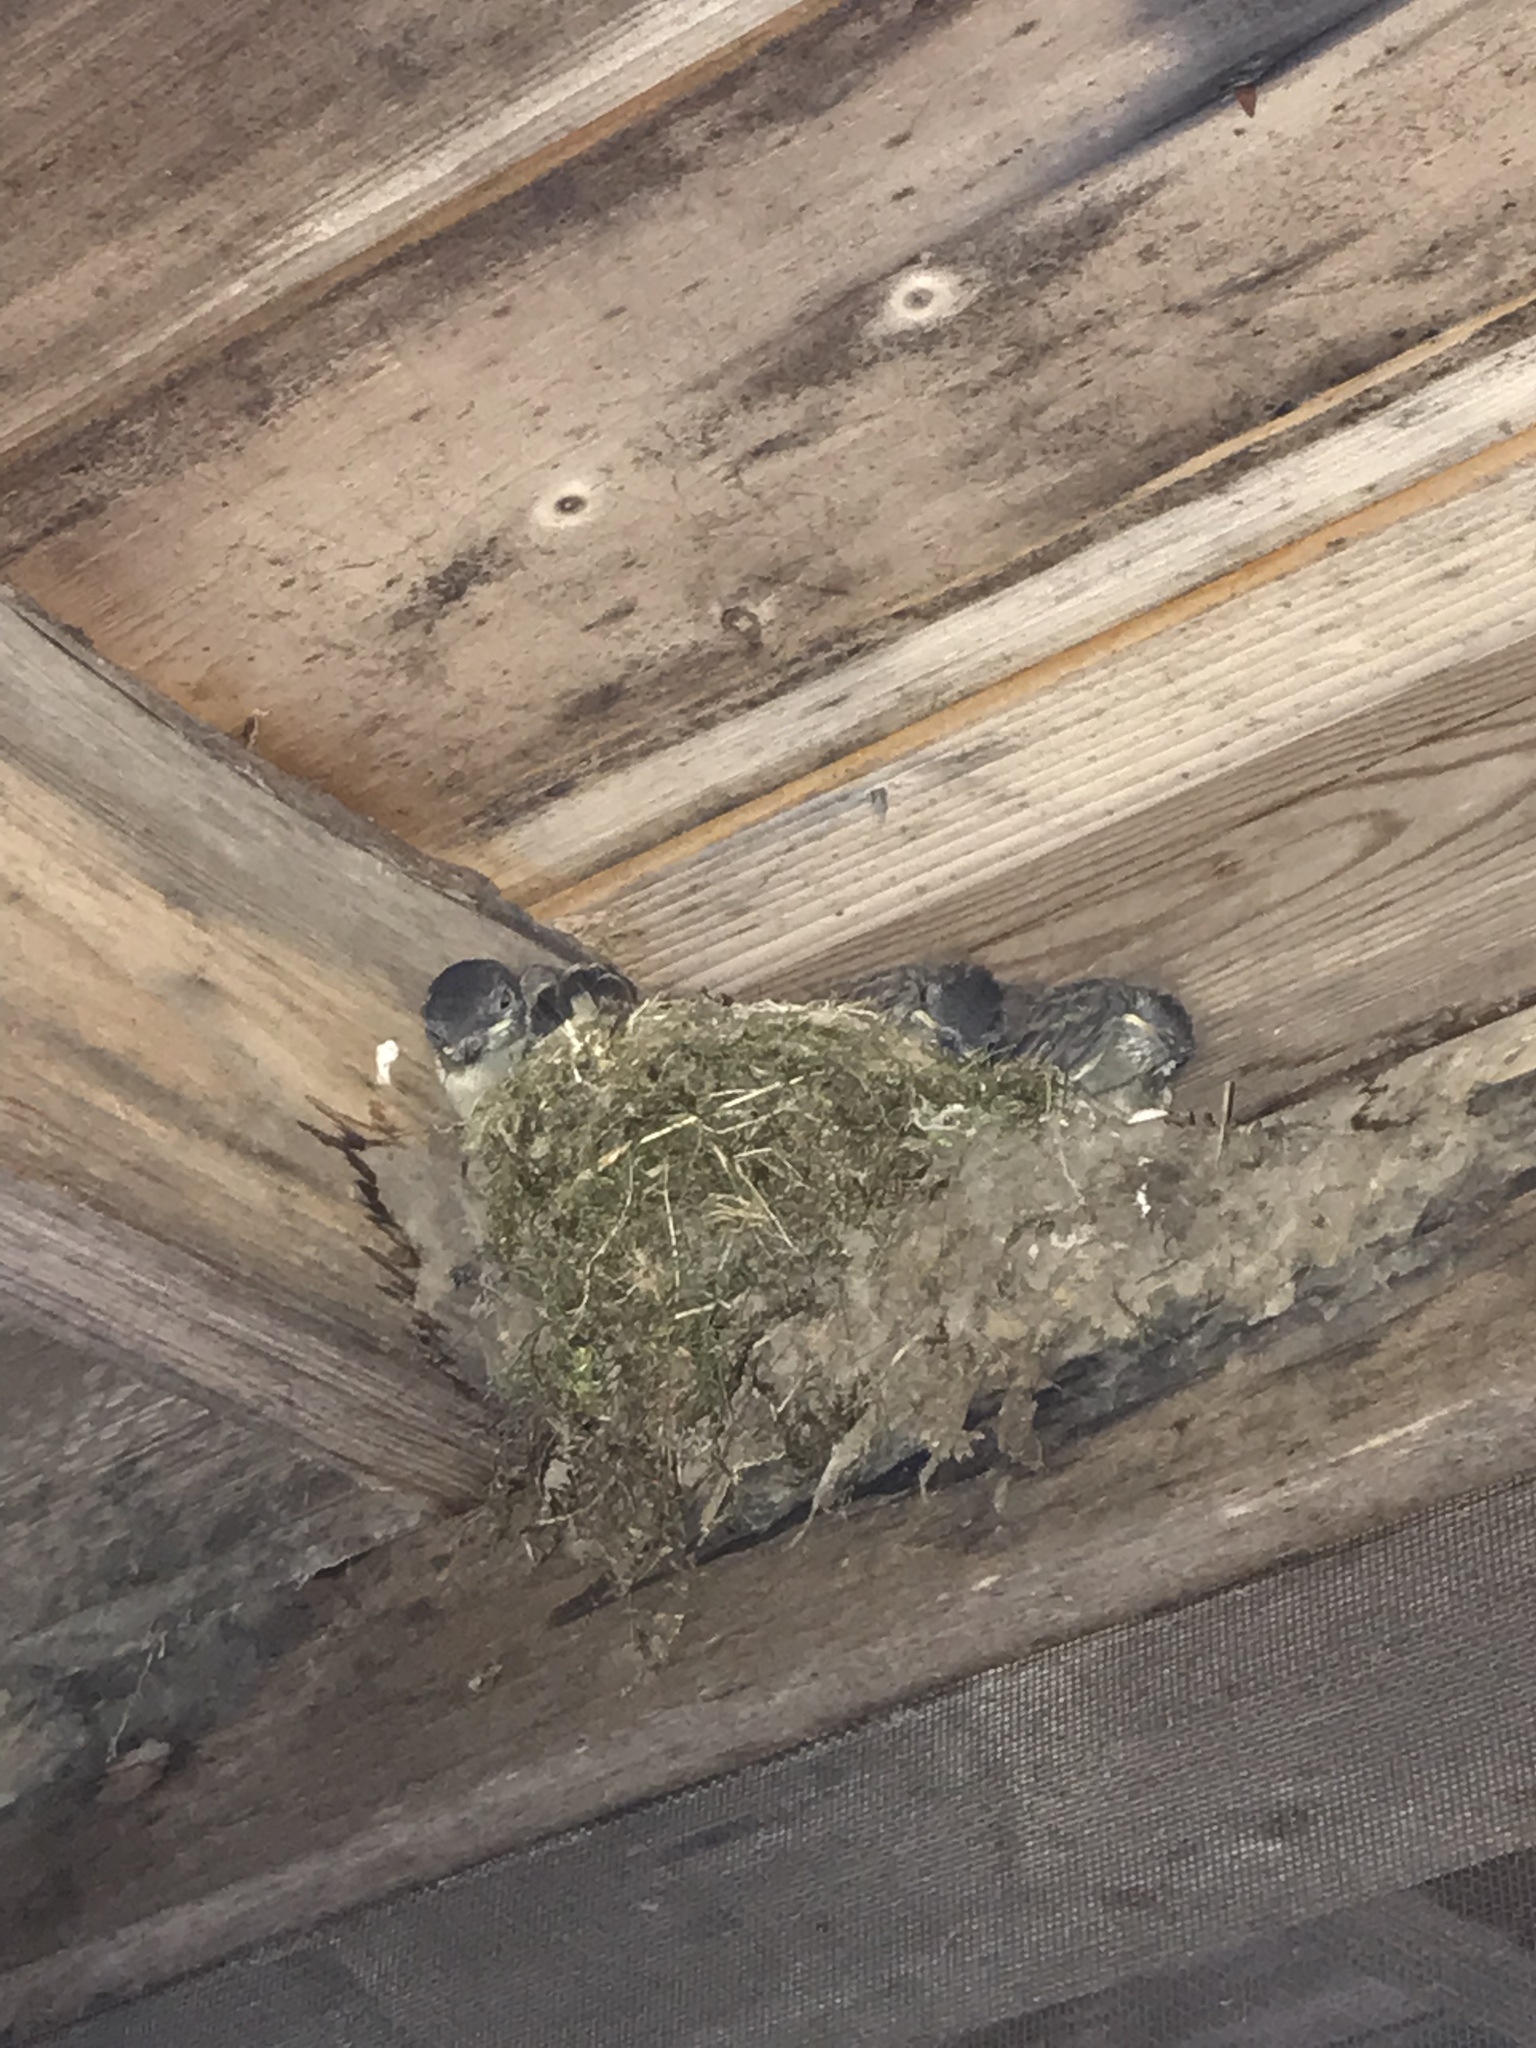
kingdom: Animalia
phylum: Chordata
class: Aves
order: Passeriformes
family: Tyrannidae
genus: Sayornis
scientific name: Sayornis phoebe
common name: Eastern phoebe
